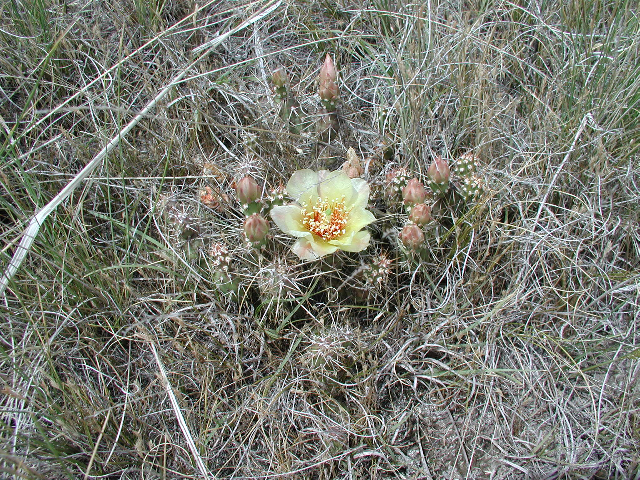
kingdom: Plantae
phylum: Tracheophyta
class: Magnoliopsida
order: Caryophyllales
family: Cactaceae
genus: Opuntia
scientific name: Opuntia fragilis
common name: Brittle cactus
